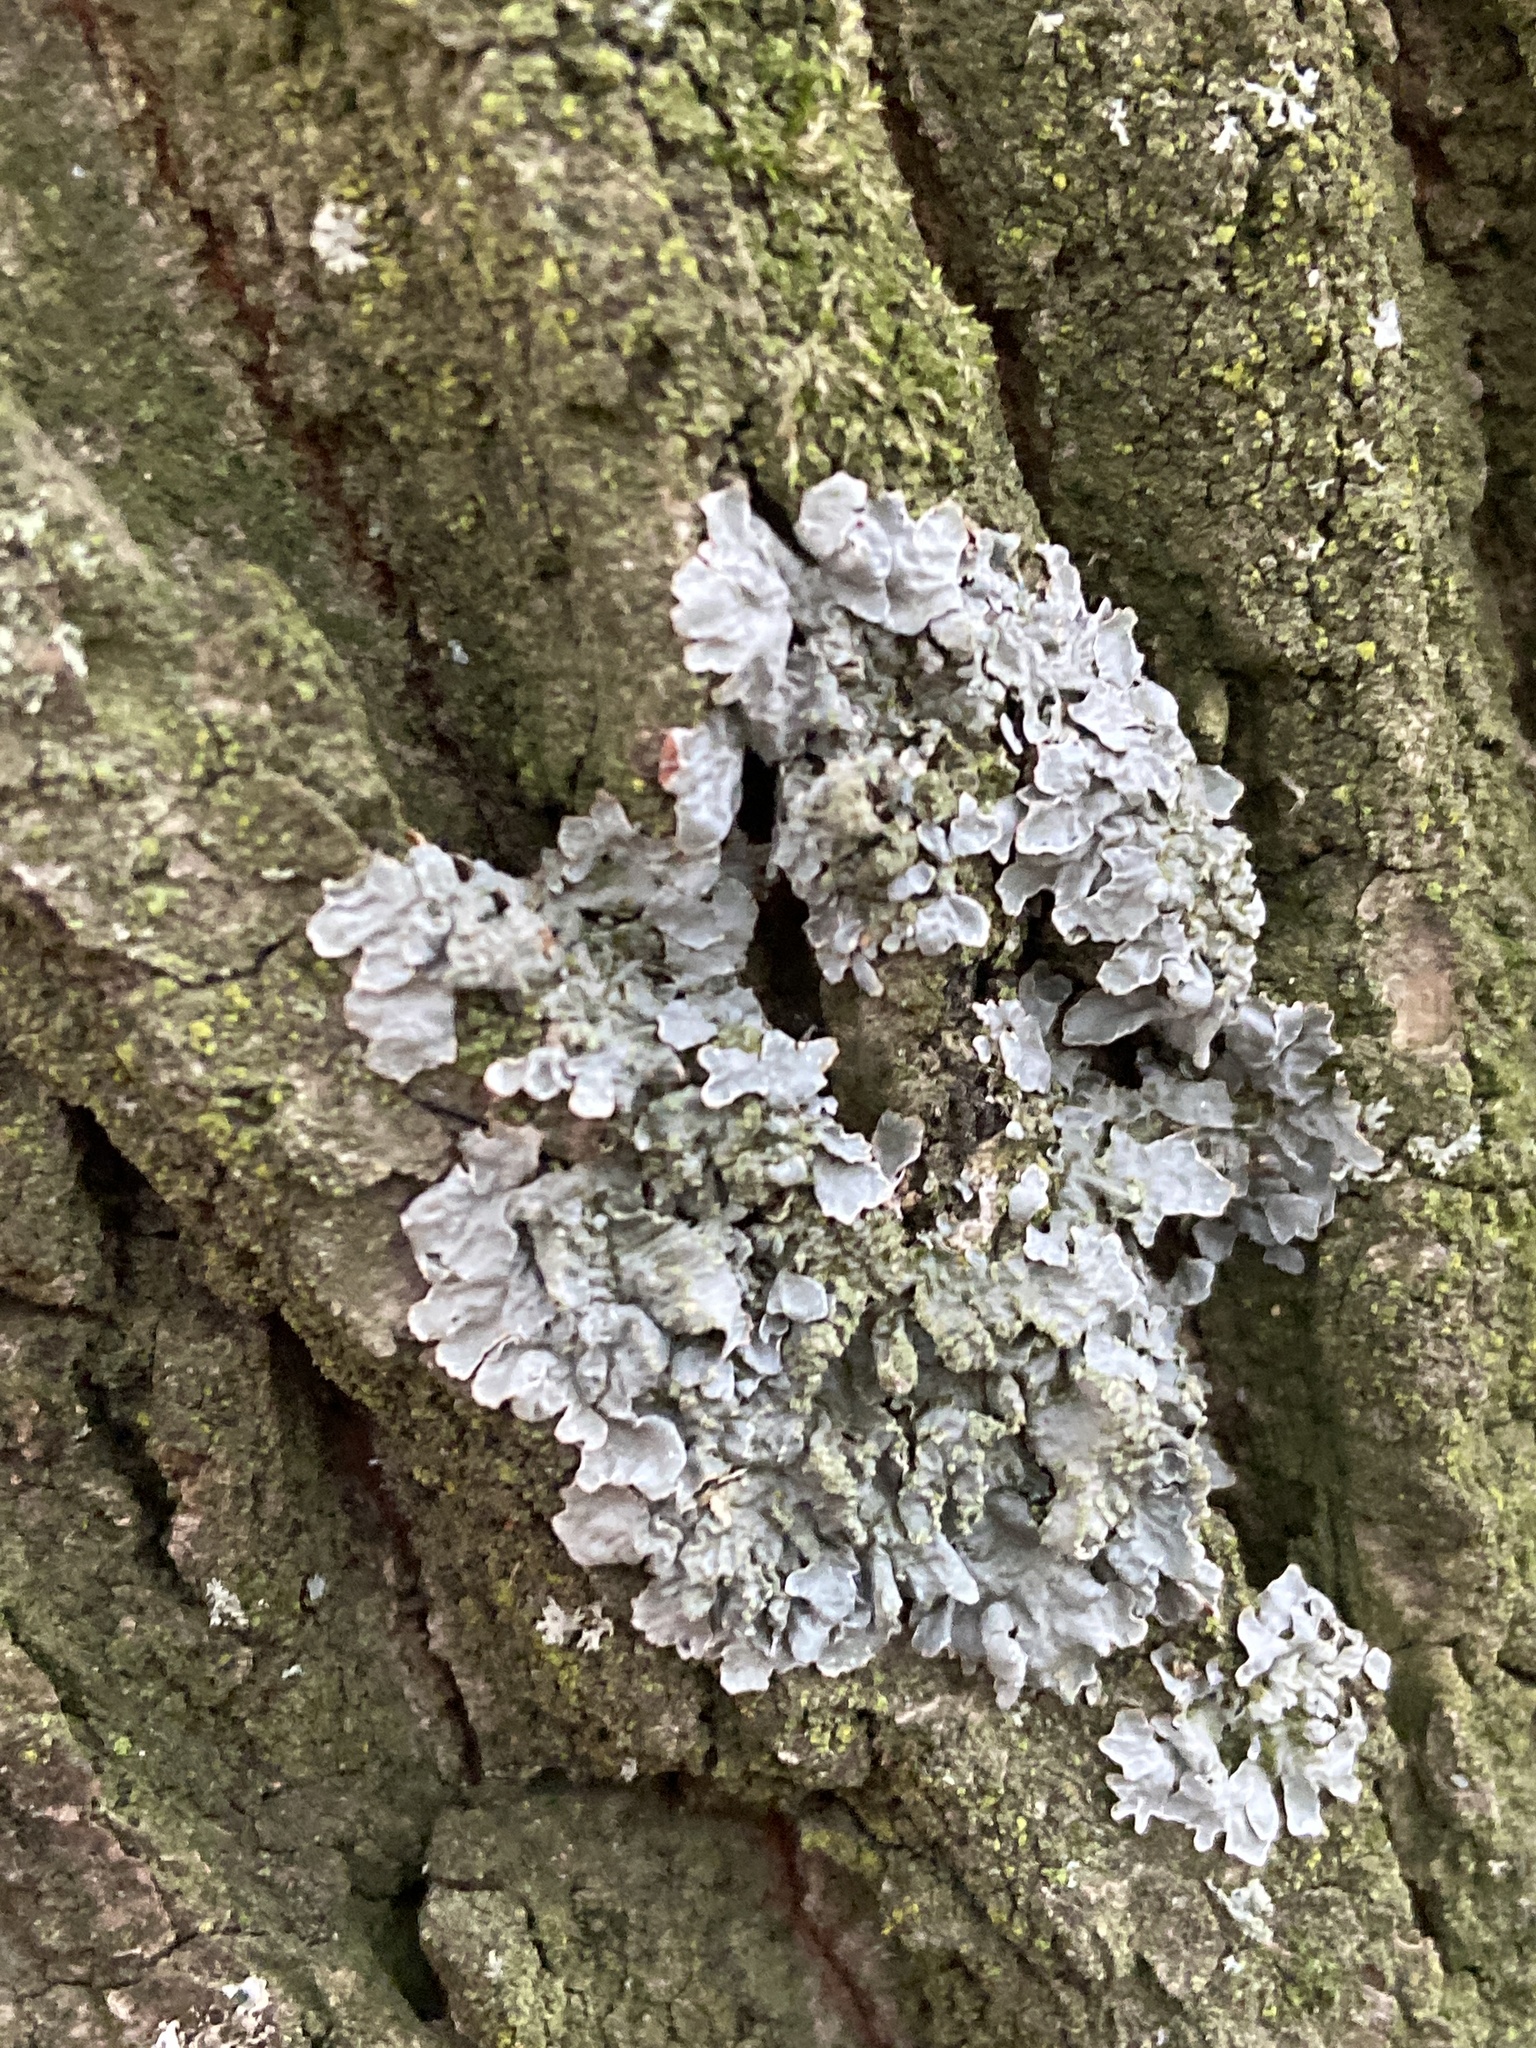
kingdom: Fungi
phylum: Ascomycota
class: Lecanoromycetes
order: Lecanorales
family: Parmeliaceae
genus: Parmelia
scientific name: Parmelia sulcata
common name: Netted shield lichen
